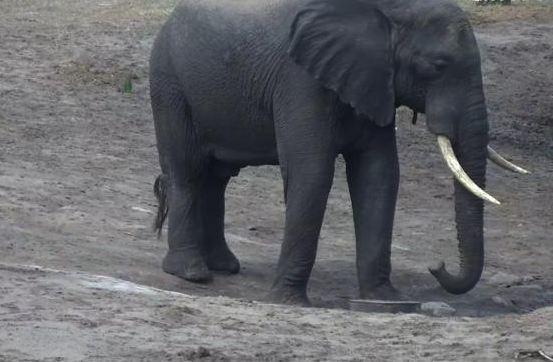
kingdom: Animalia
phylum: Chordata
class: Mammalia
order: Proboscidea
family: Elephantidae
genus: Loxodonta
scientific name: Loxodonta africana
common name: African elephant
